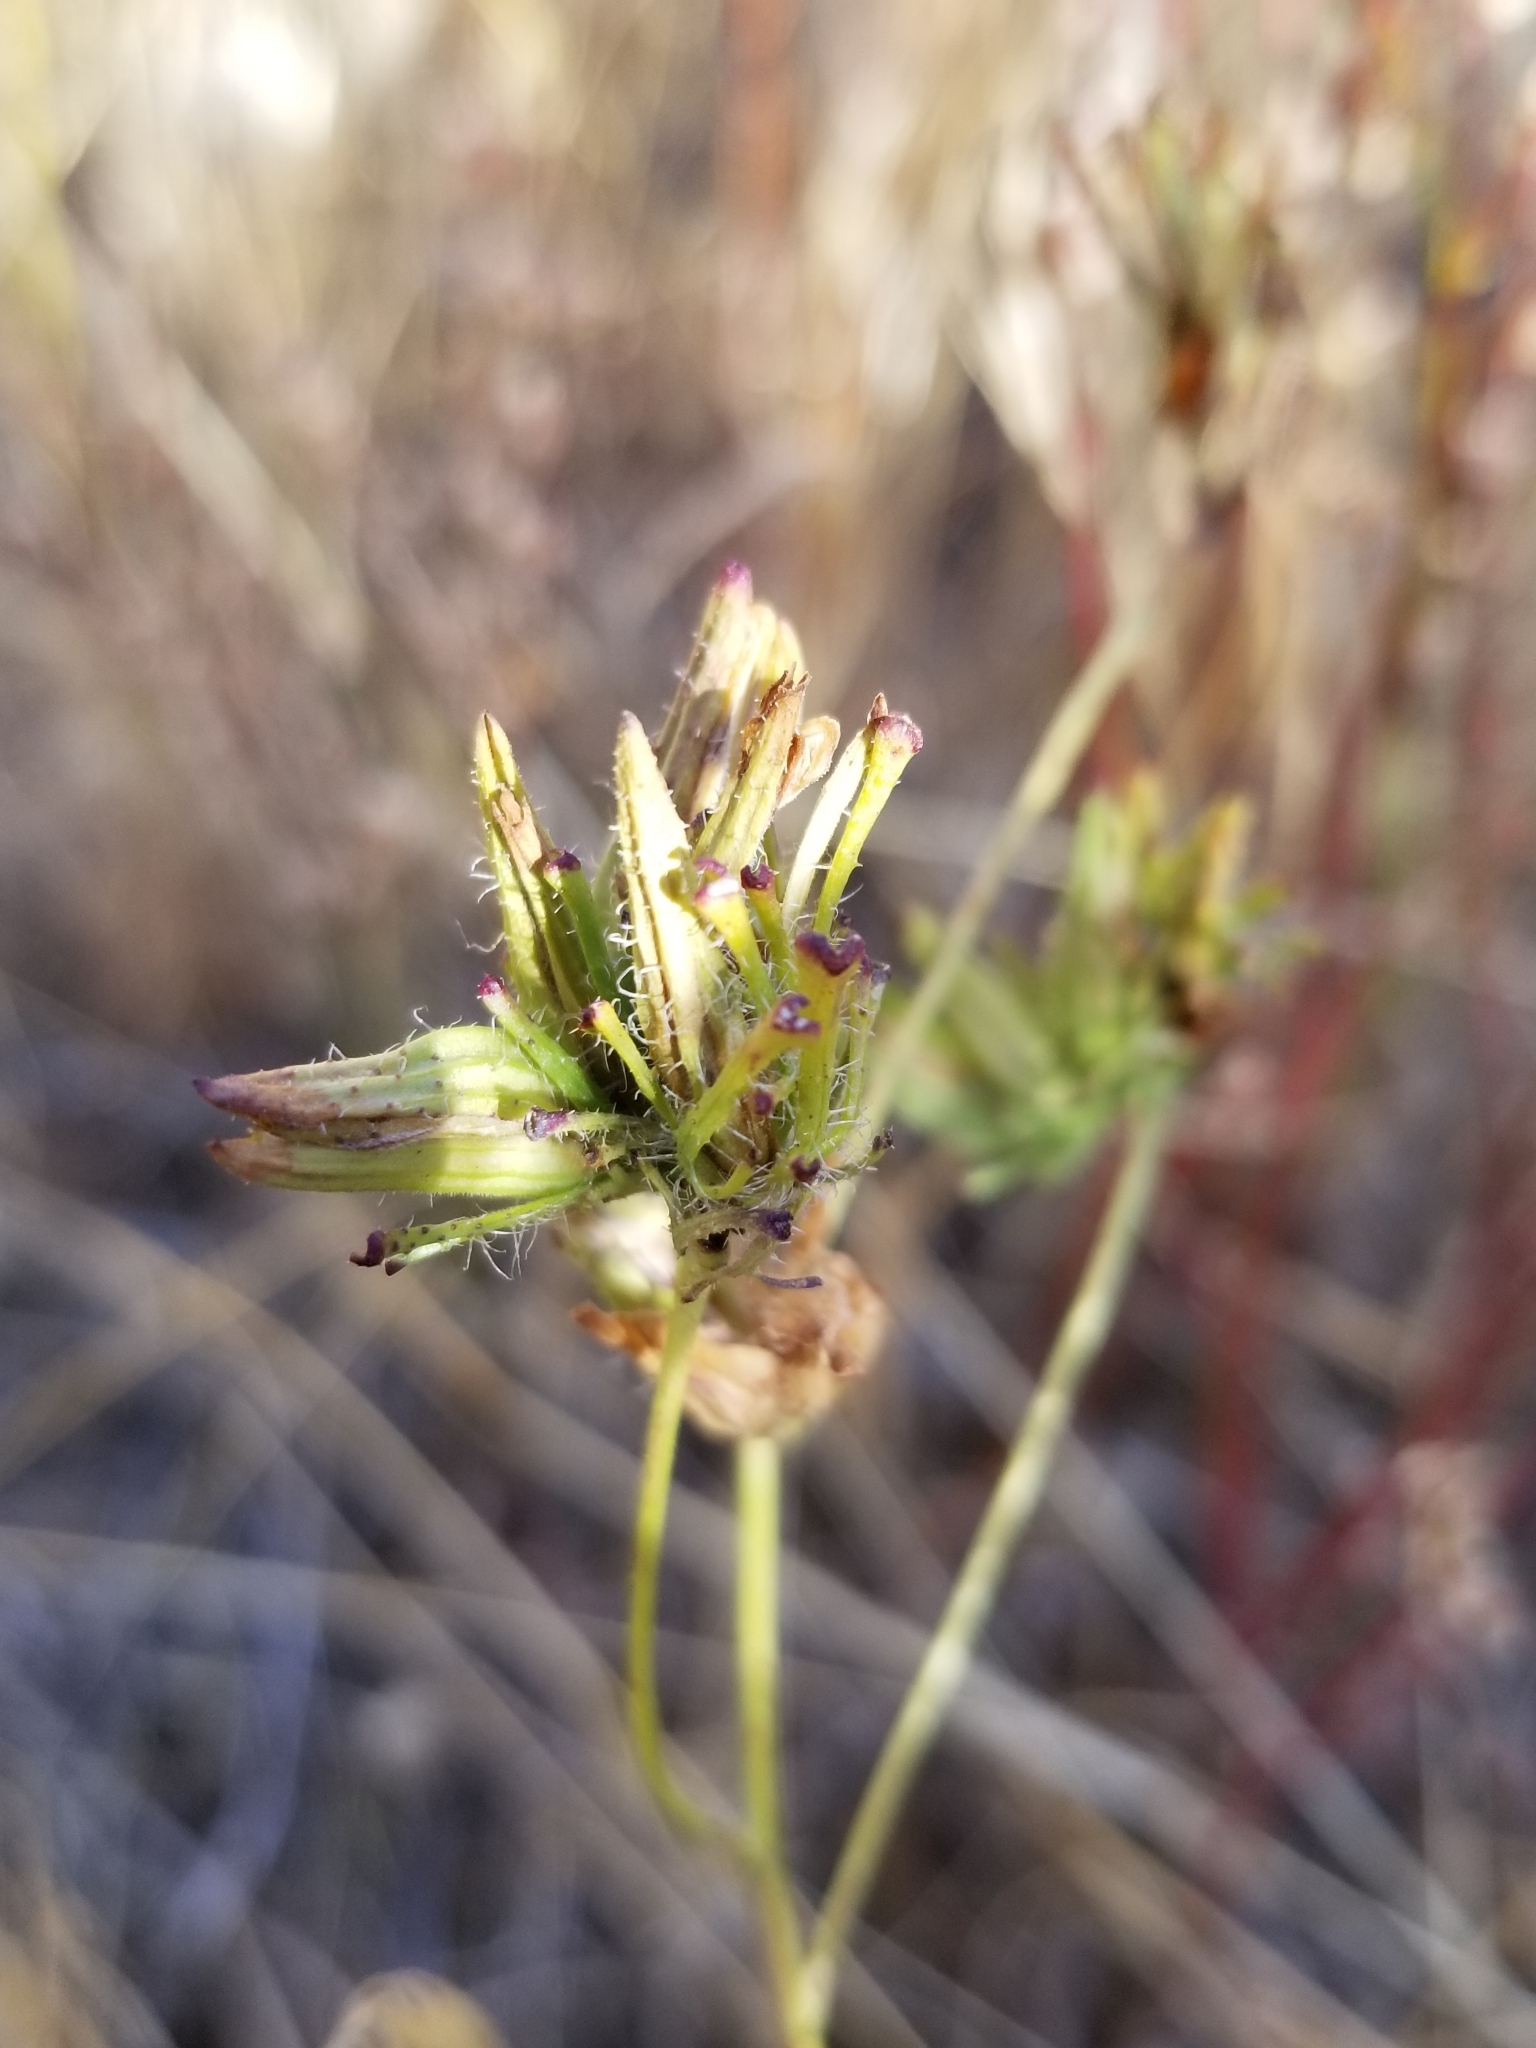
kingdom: Plantae
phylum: Tracheophyta
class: Magnoliopsida
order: Lamiales
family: Orobanchaceae
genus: Cordylanthus
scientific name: Cordylanthus rigidus
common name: Stiff-branch bird's-beak
